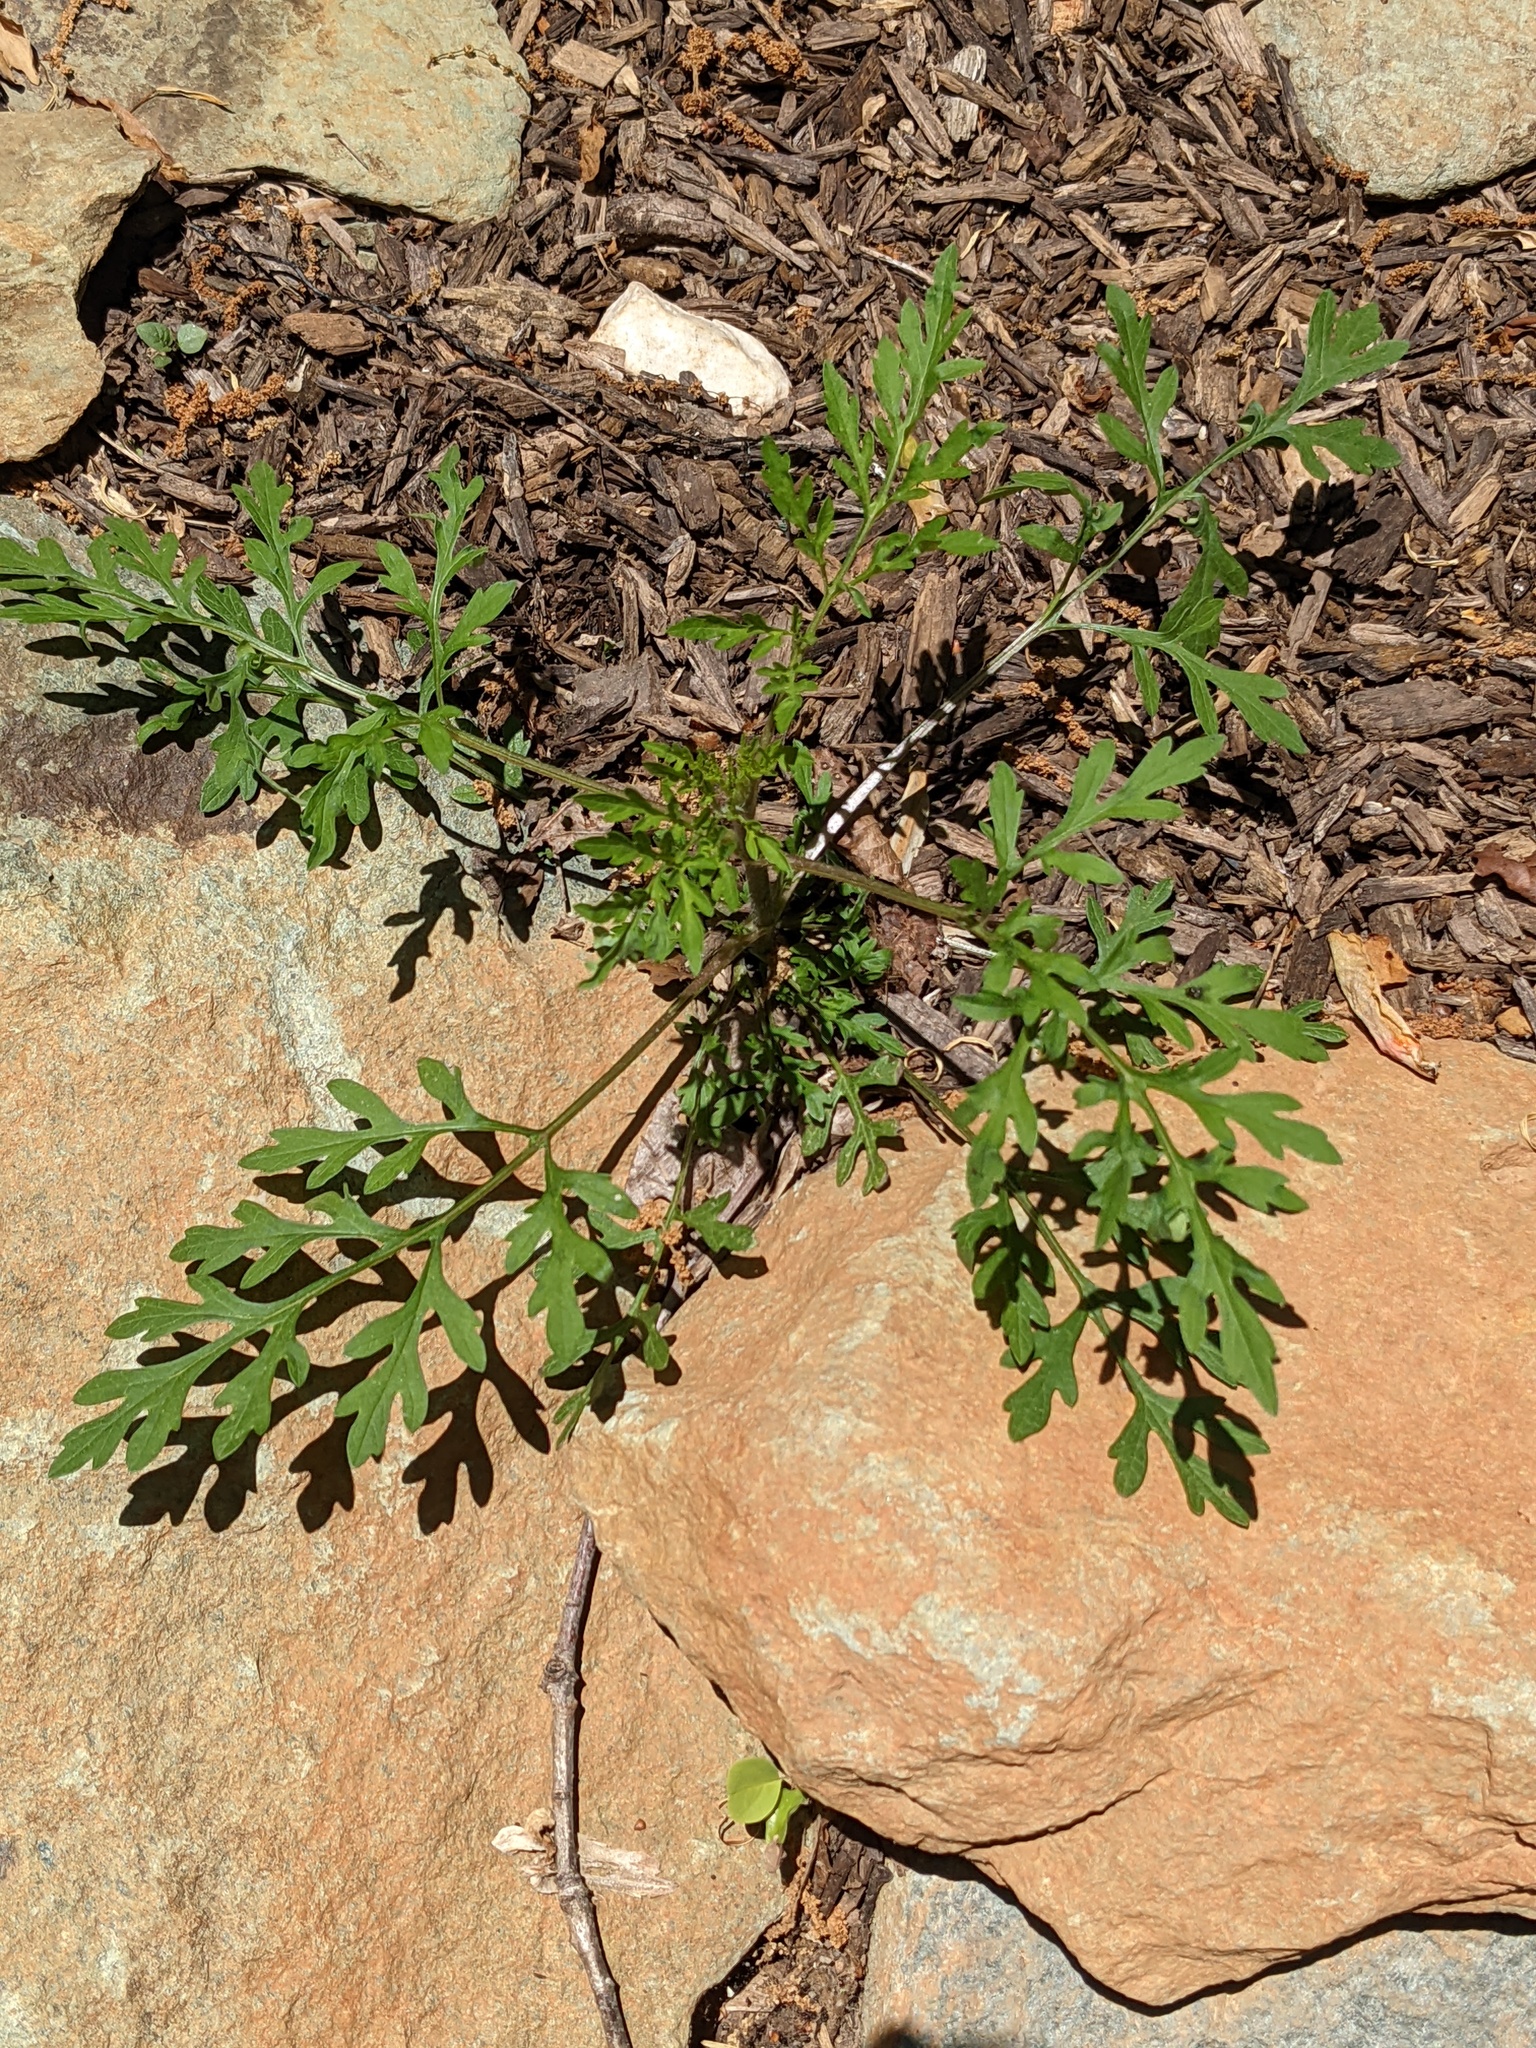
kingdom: Plantae
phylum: Tracheophyta
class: Magnoliopsida
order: Asterales
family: Asteraceae
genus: Ambrosia
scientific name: Ambrosia artemisiifolia
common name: Annual ragweed
